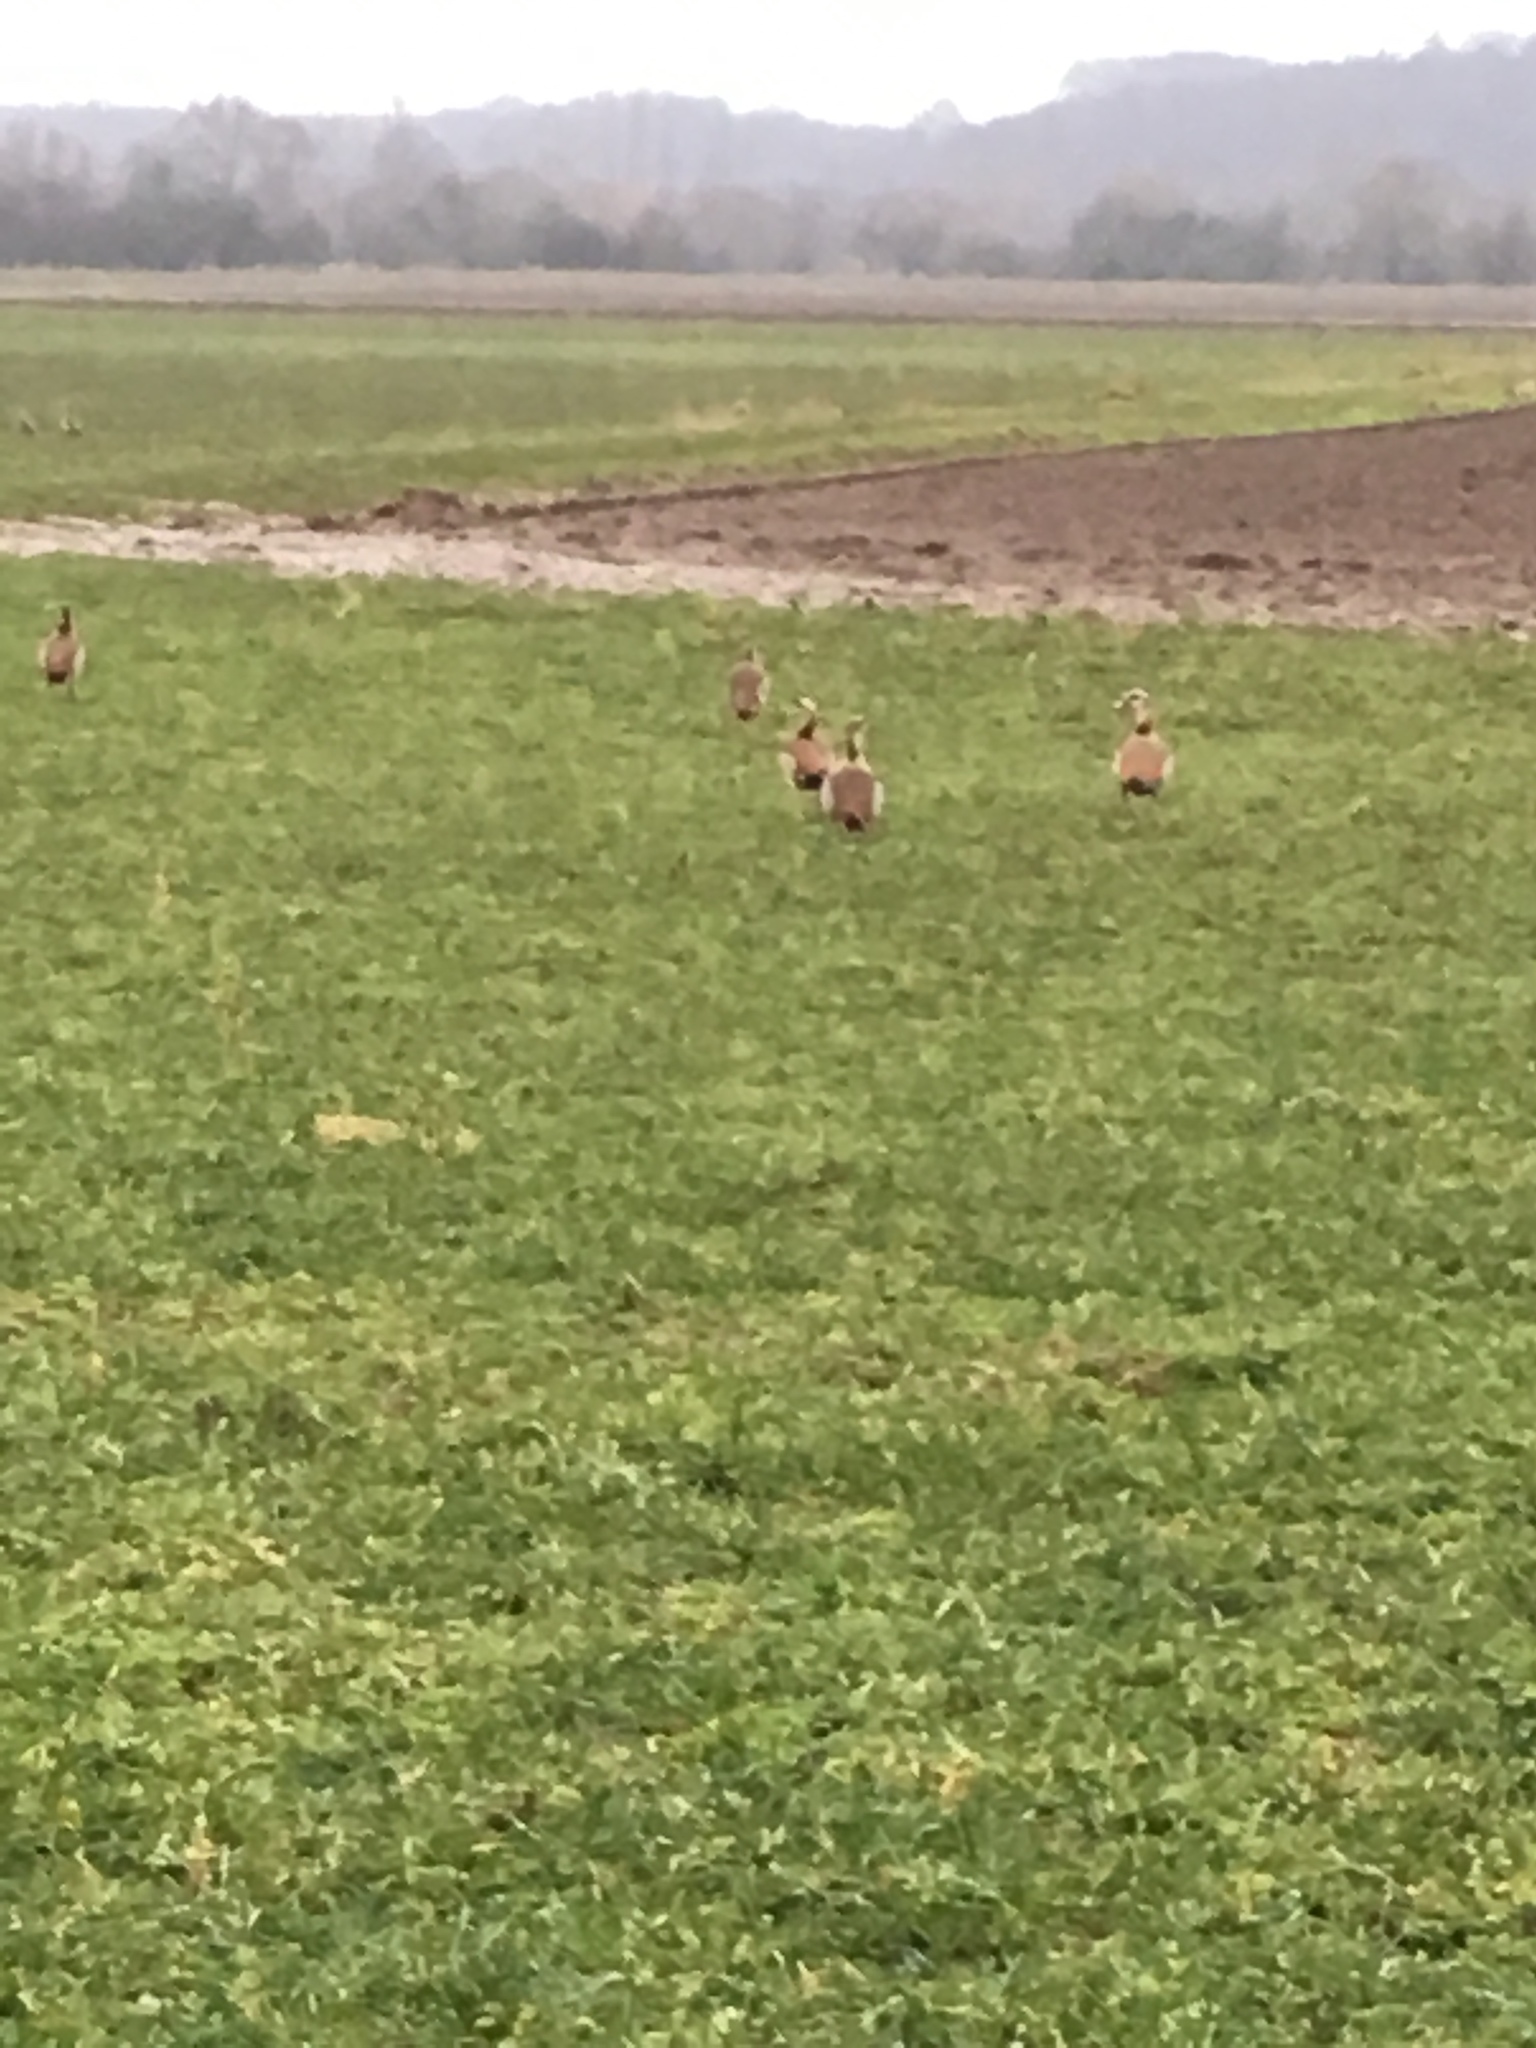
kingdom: Animalia
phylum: Chordata
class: Aves
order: Anseriformes
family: Anatidae
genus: Alopochen
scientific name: Alopochen aegyptiaca
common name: Egyptian goose
